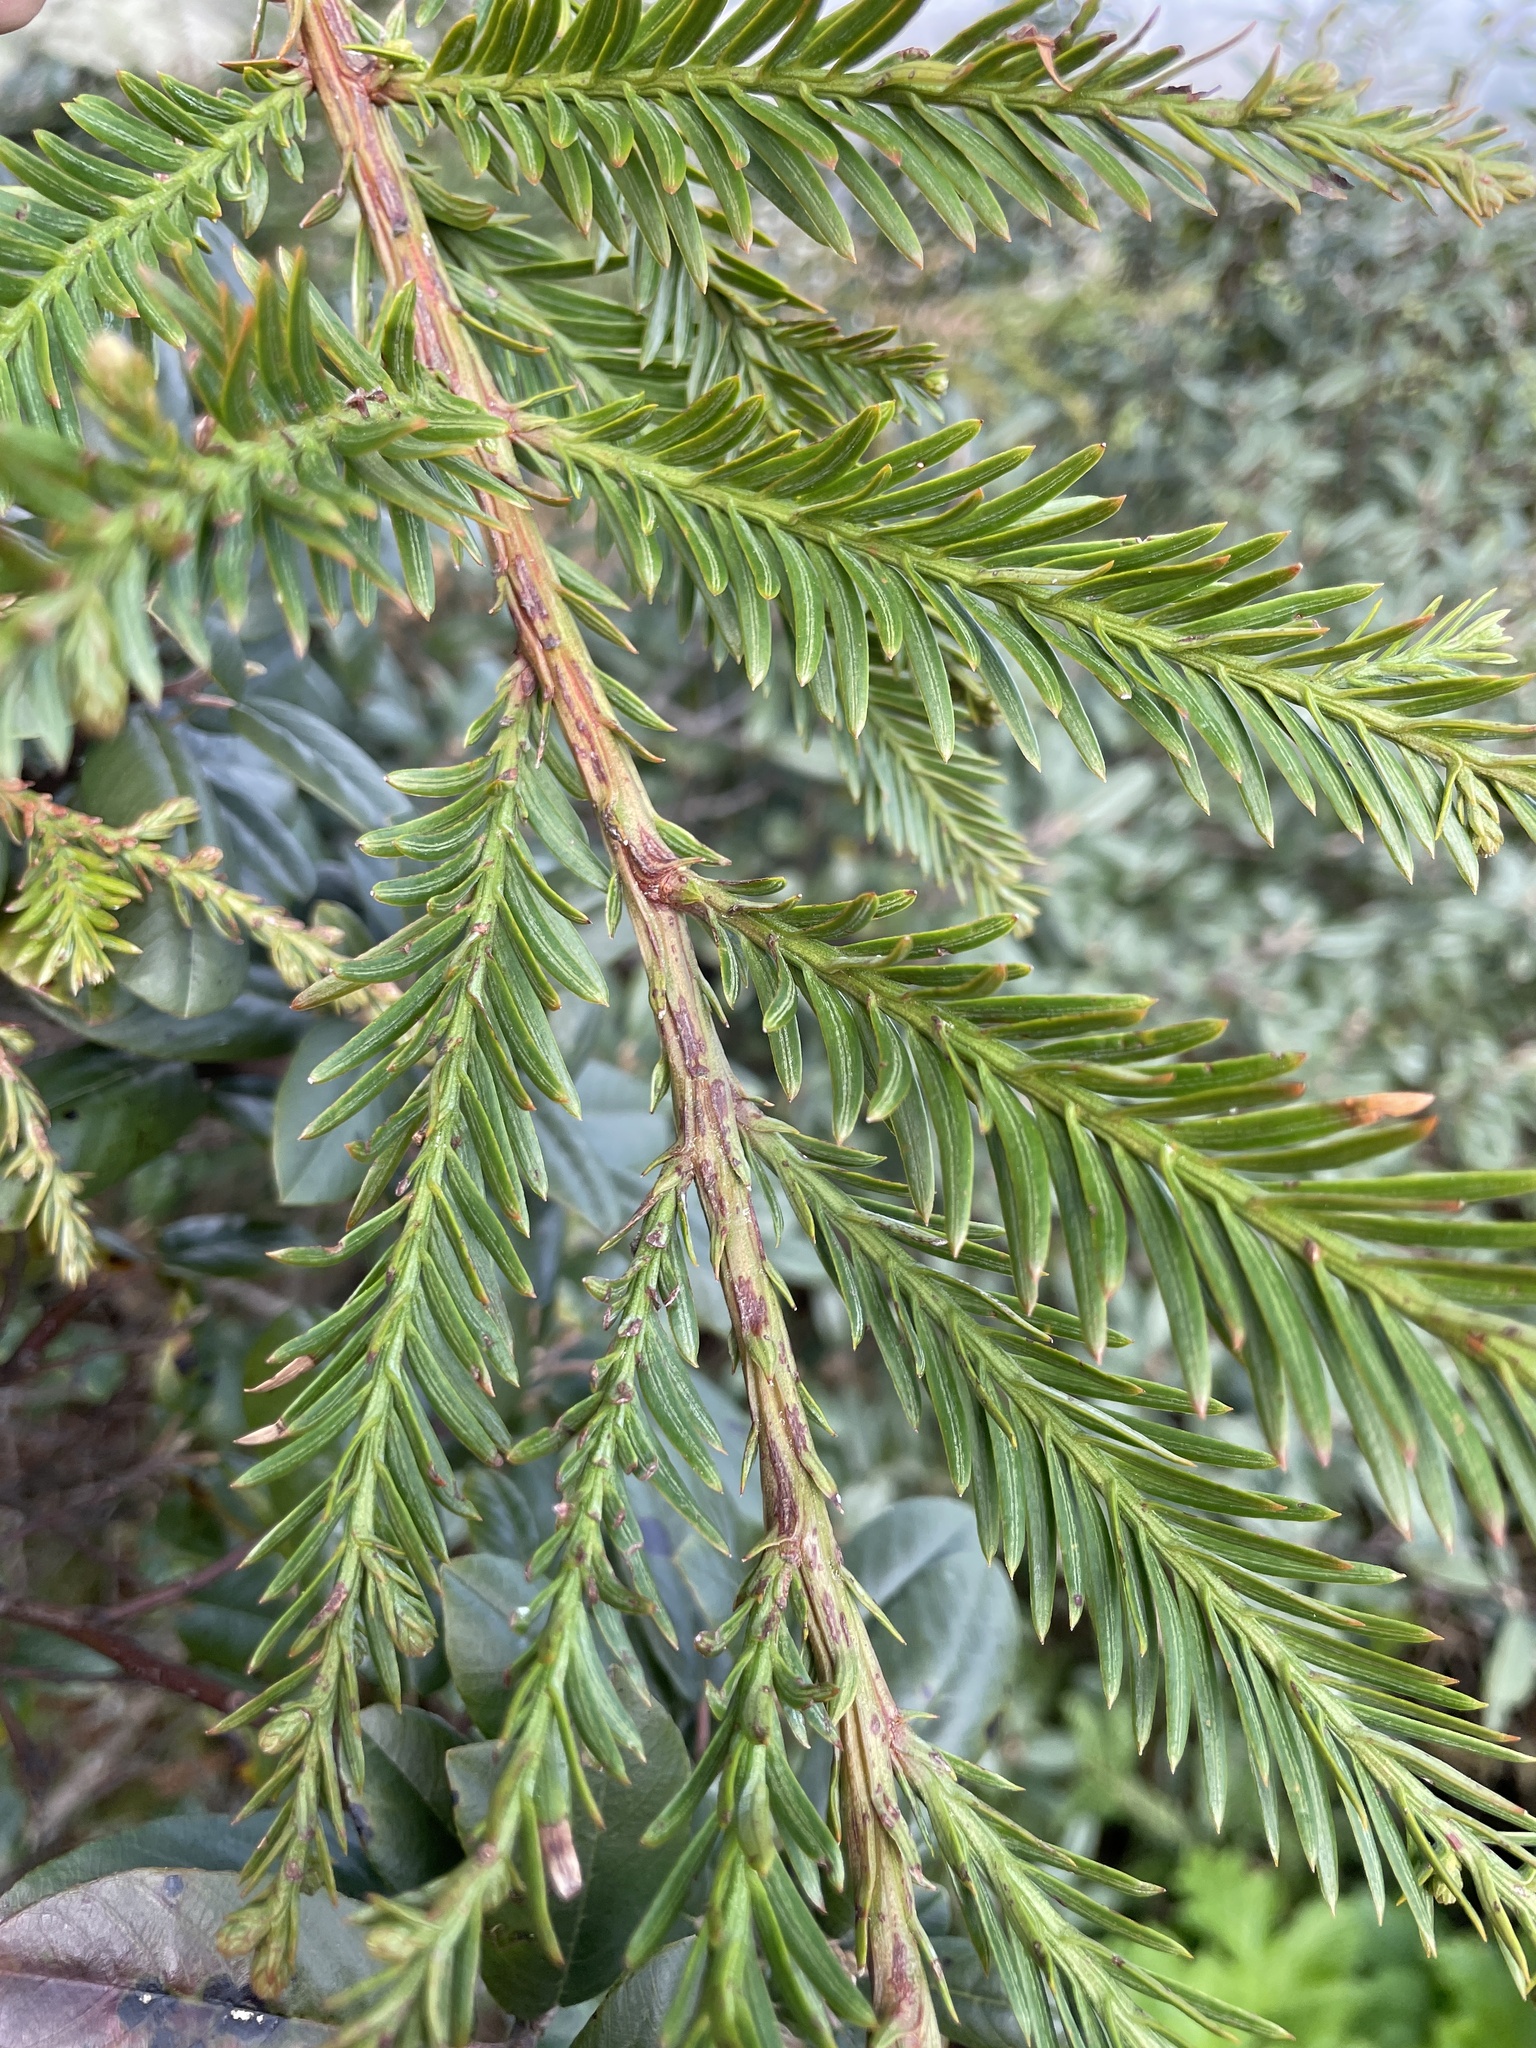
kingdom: Plantae
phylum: Tracheophyta
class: Pinopsida
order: Pinales
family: Cupressaceae
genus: Sequoia
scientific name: Sequoia sempervirens
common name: Coast redwood
